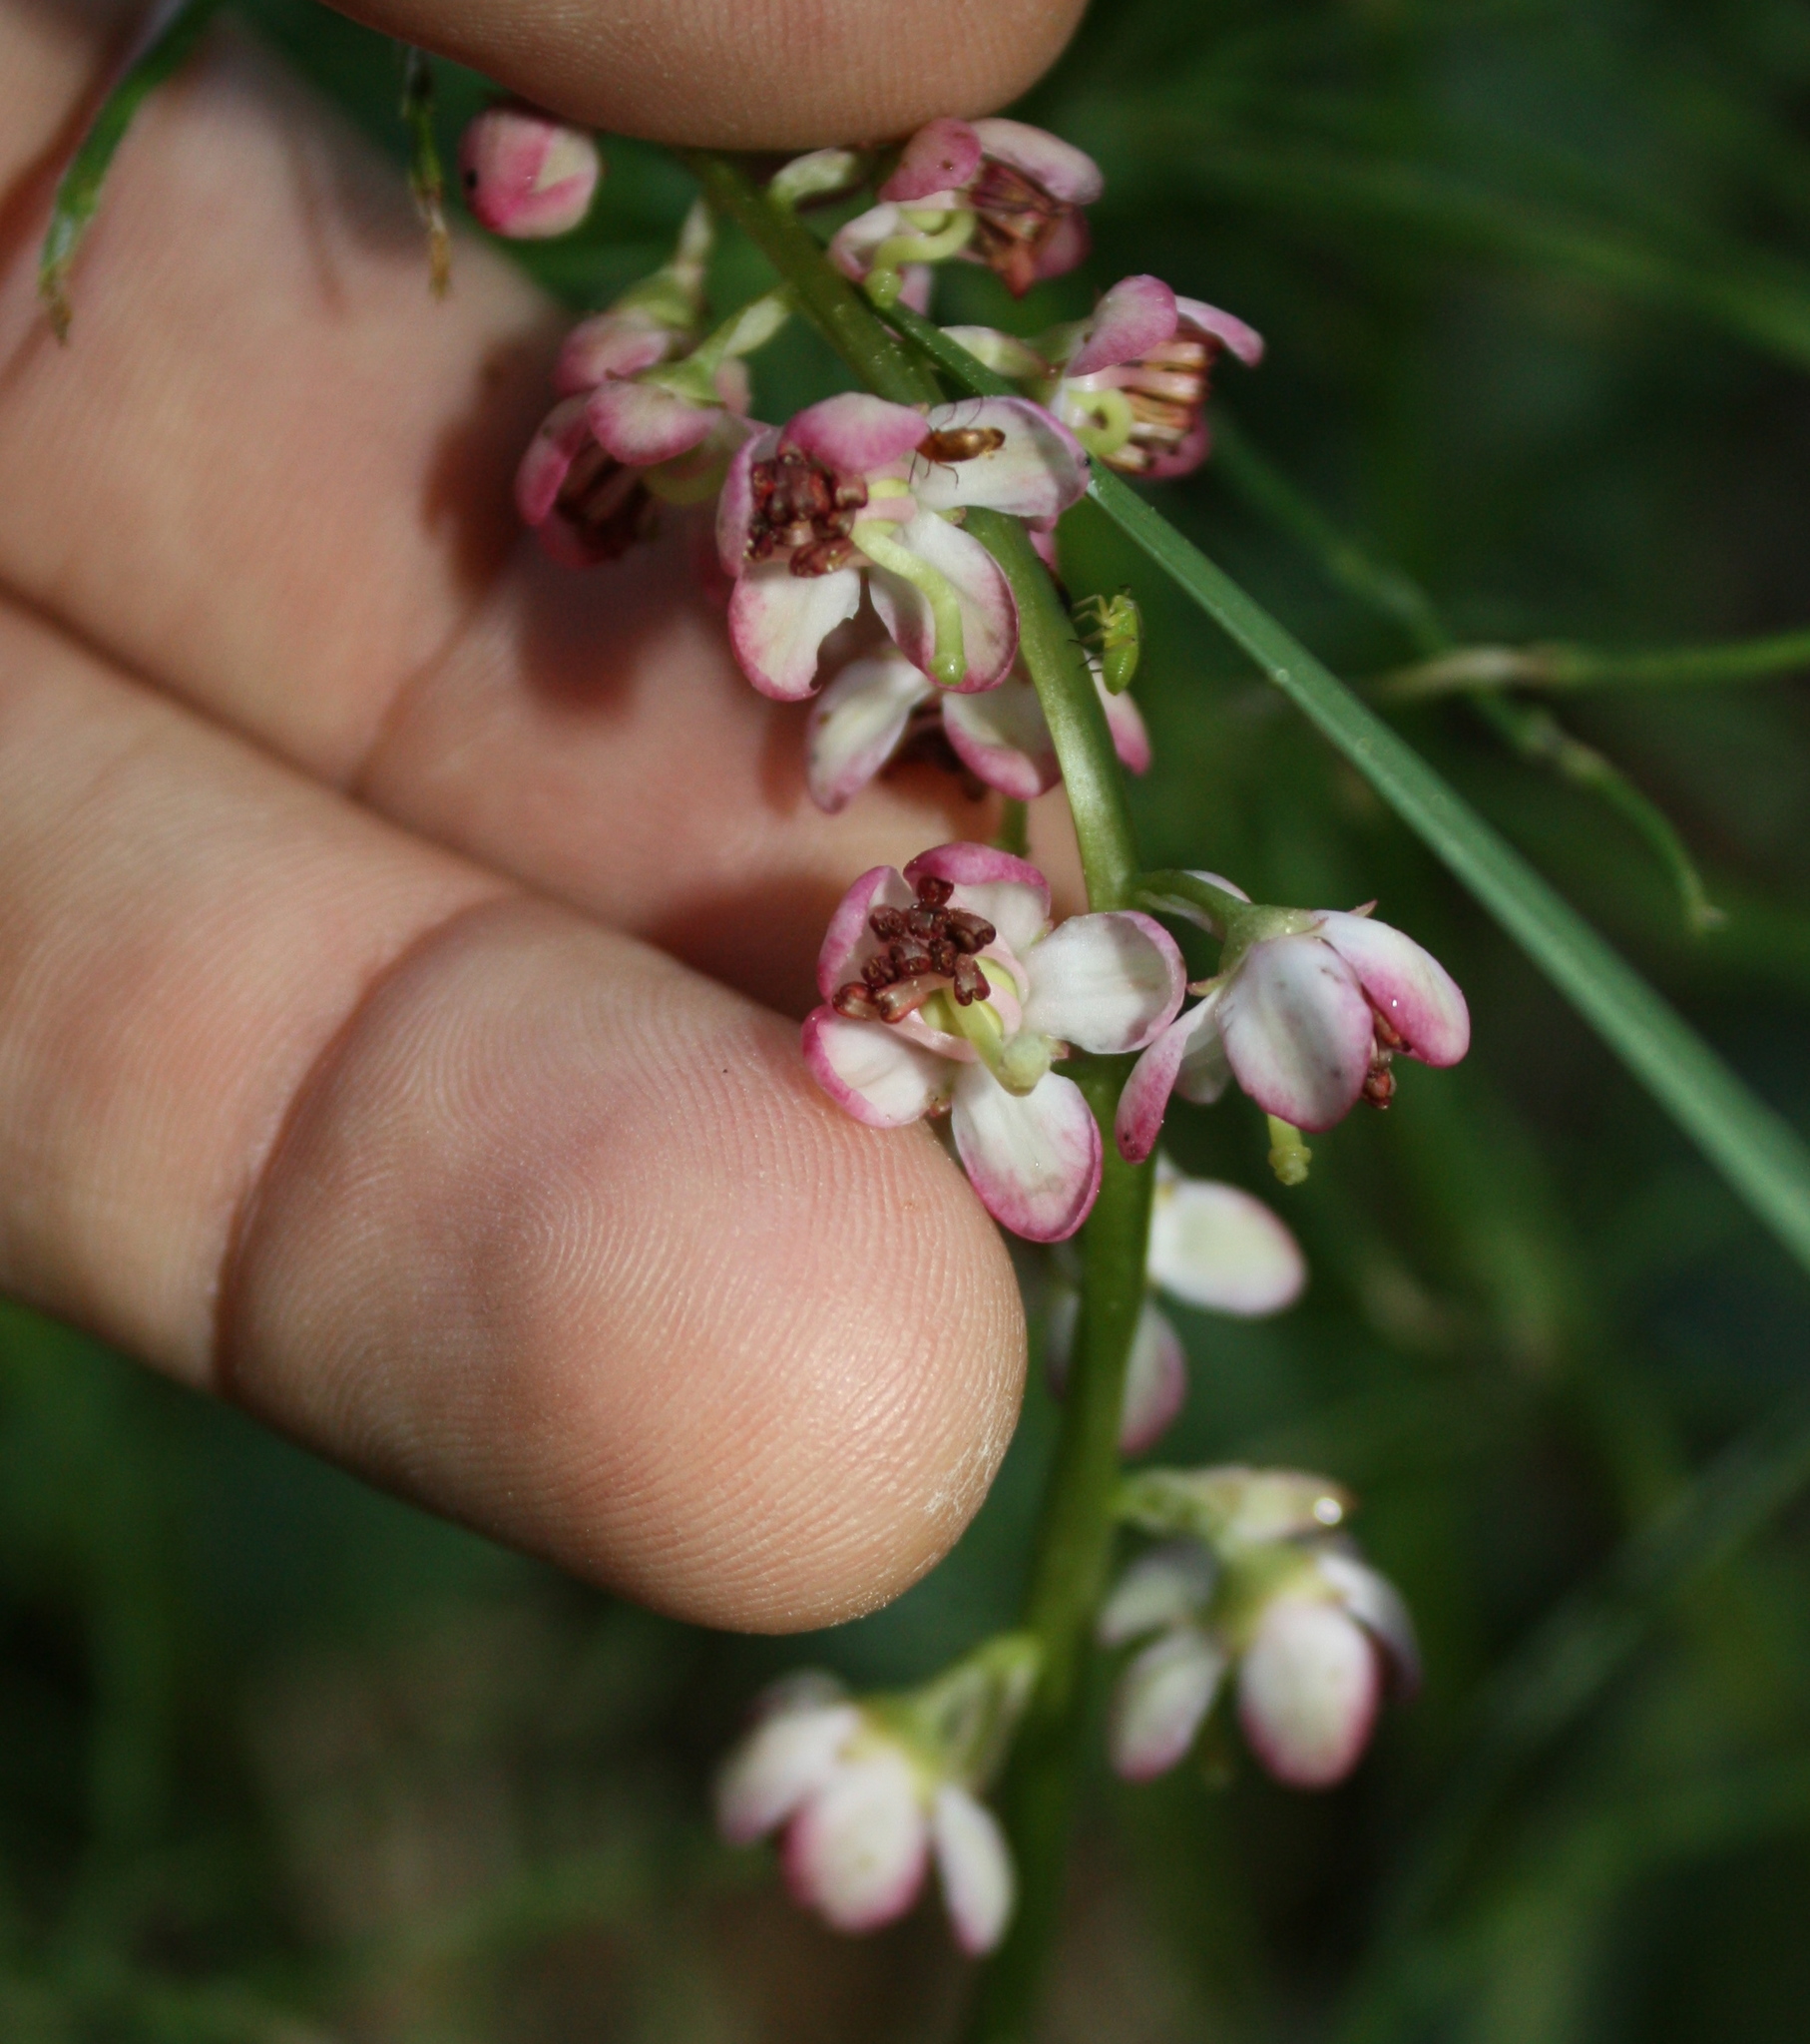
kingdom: Plantae
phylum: Tracheophyta
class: Magnoliopsida
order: Ericales
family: Ericaceae
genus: Pyrola
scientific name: Pyrola asarifolia
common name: Bog wintergreen
